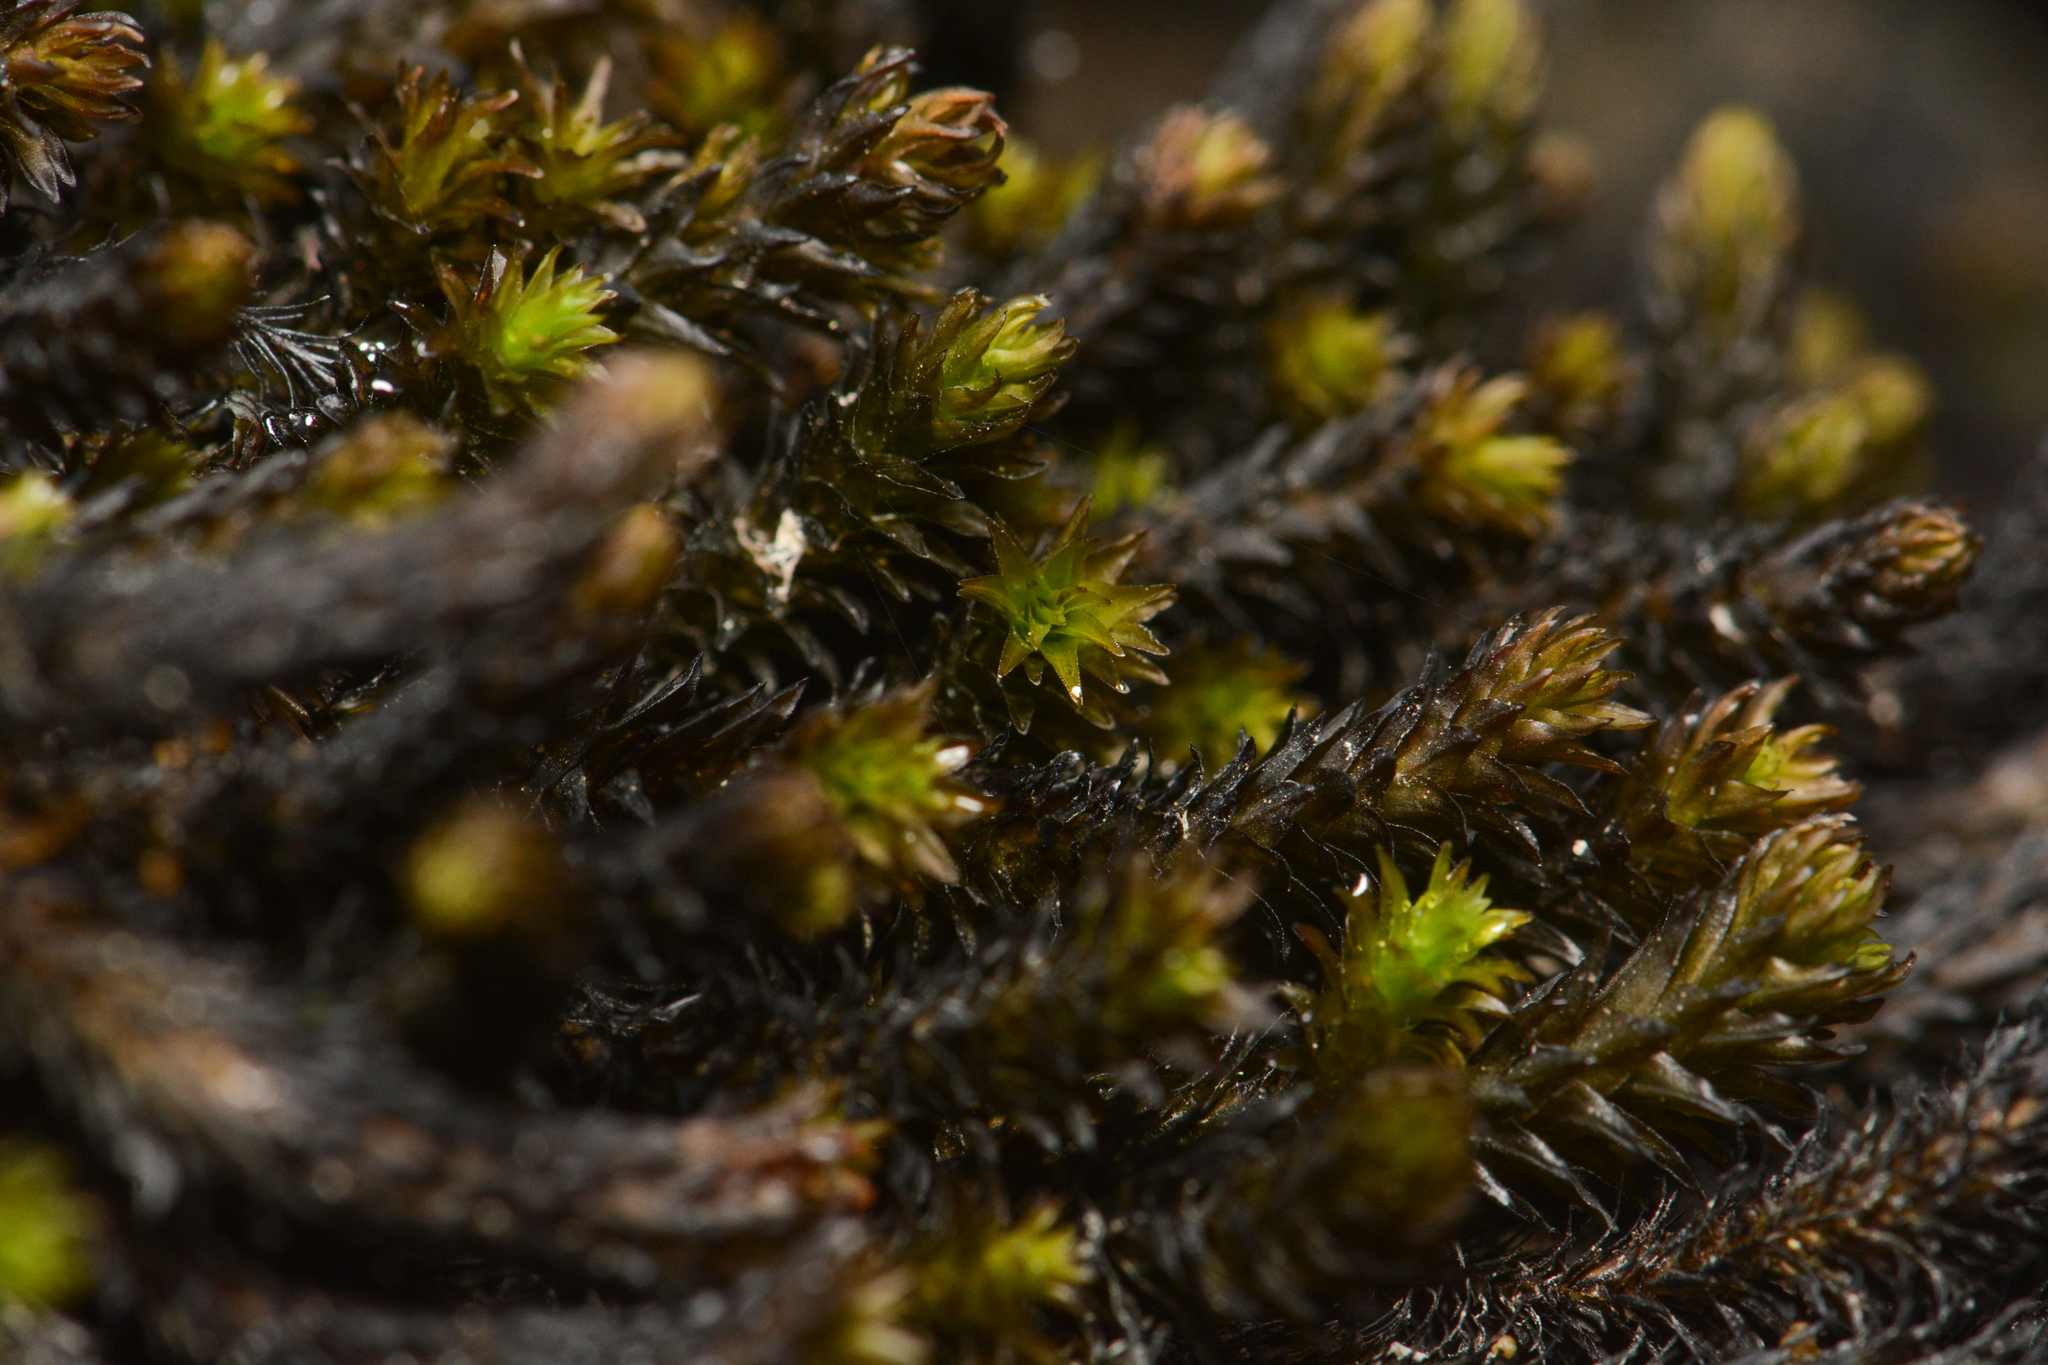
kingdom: Plantae
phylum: Bryophyta
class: Bryopsida
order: Scouleriales
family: Scouleriaceae
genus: Scouleria
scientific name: Scouleria aquatica
